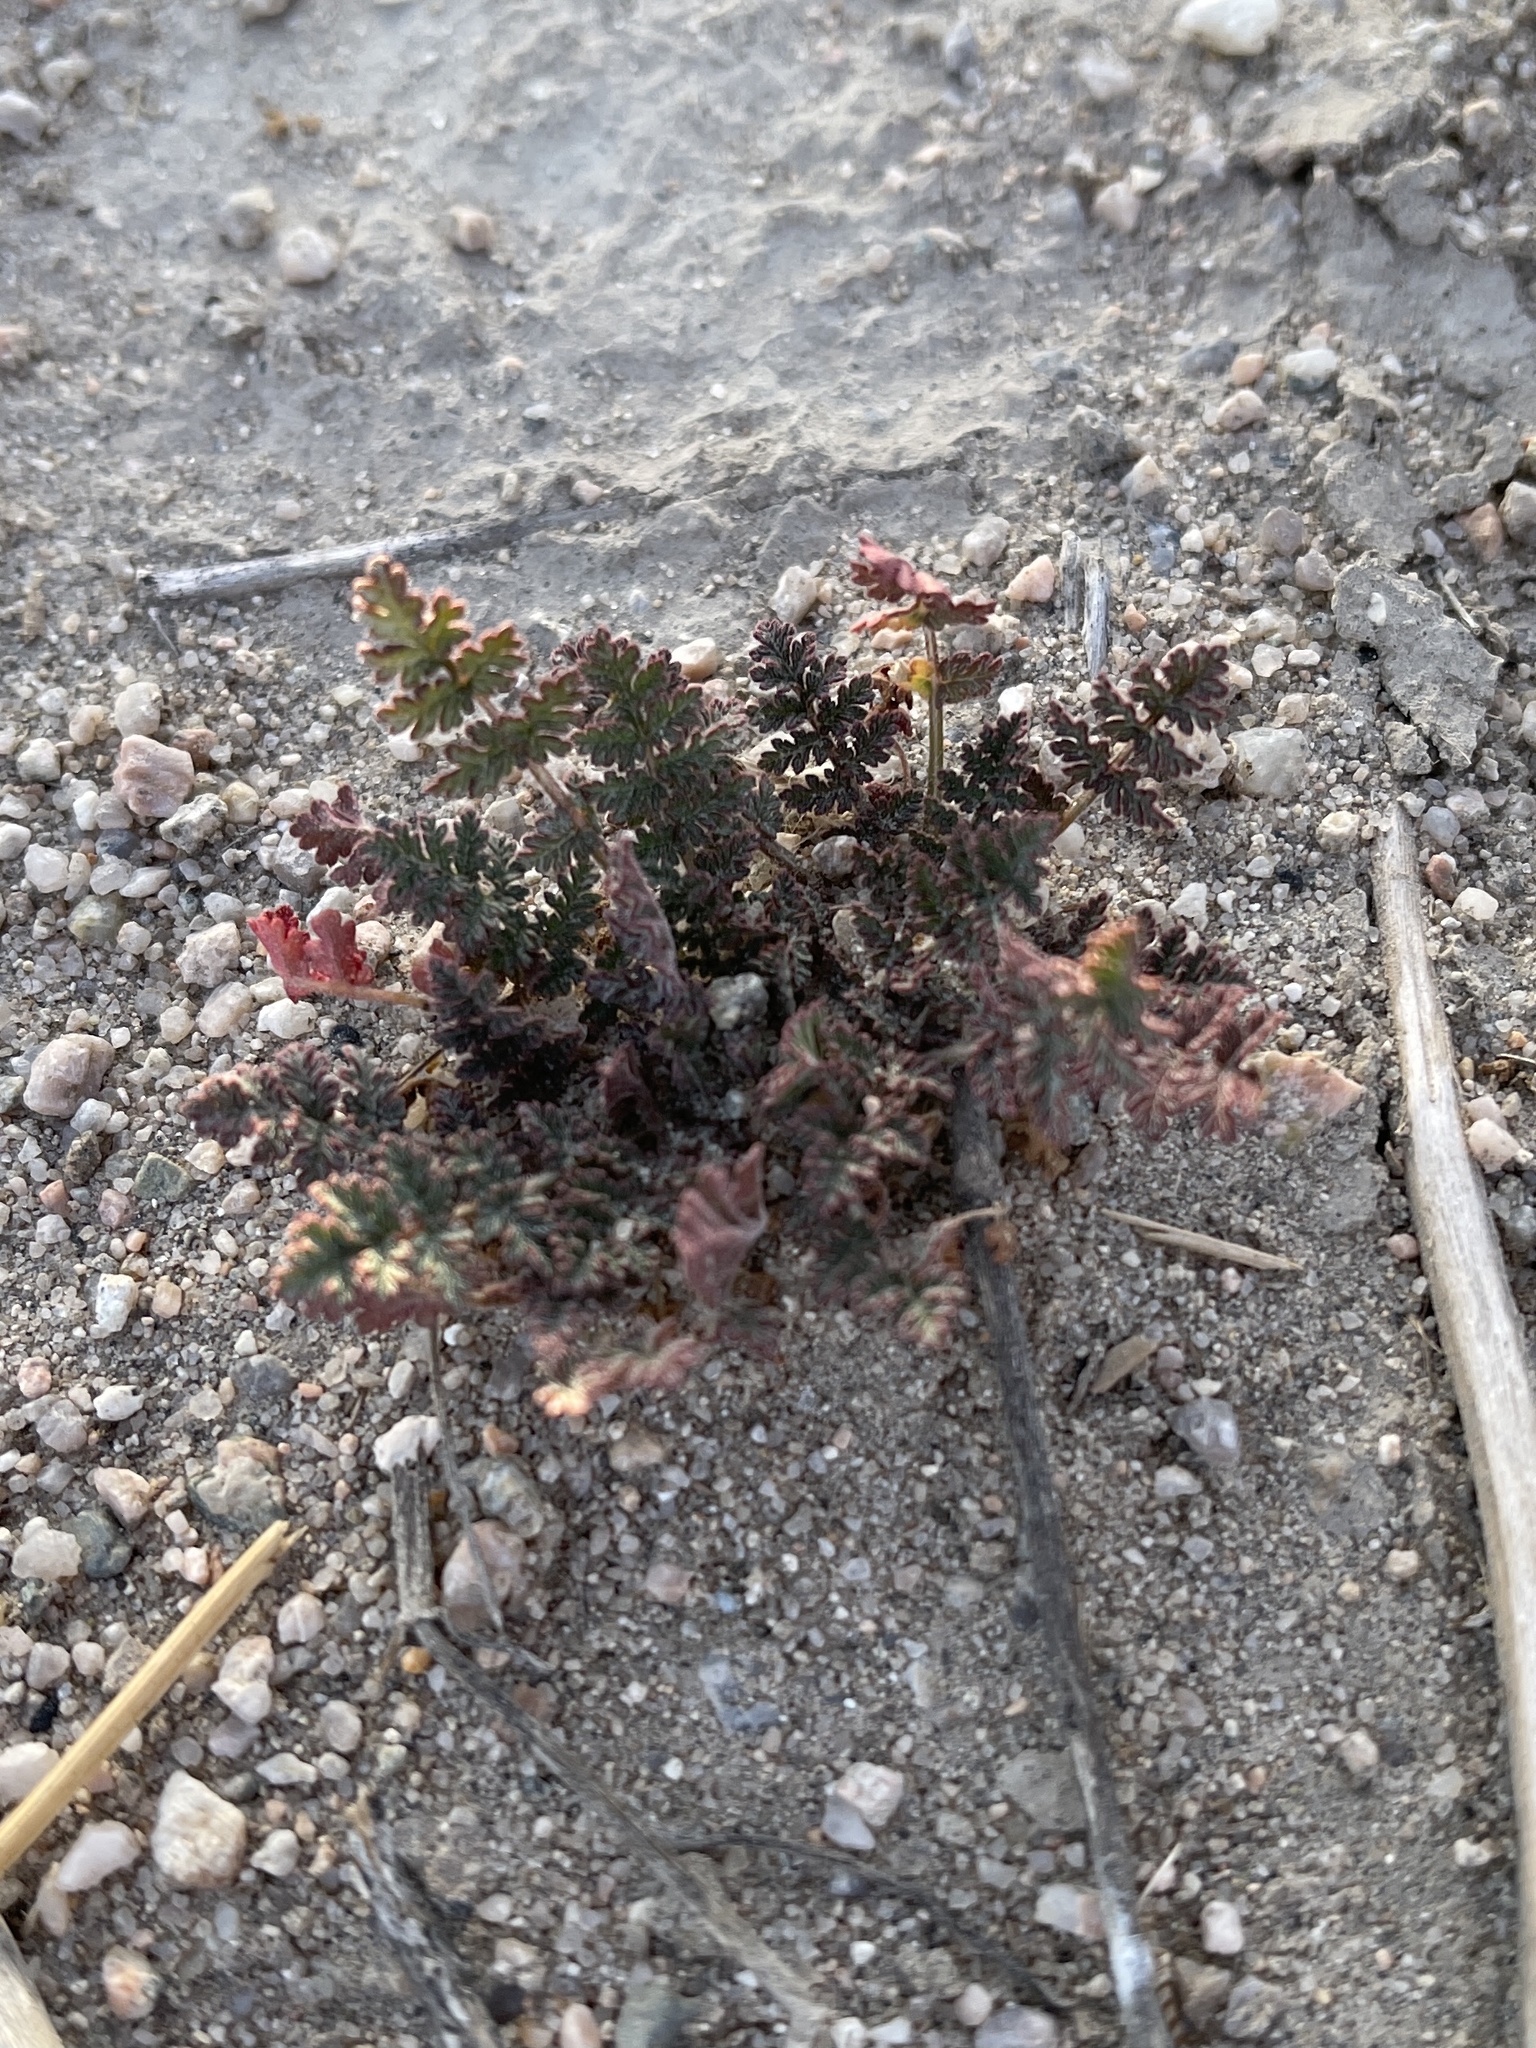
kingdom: Plantae
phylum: Tracheophyta
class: Magnoliopsida
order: Geraniales
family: Geraniaceae
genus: Erodium
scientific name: Erodium cicutarium
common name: Common stork's-bill
